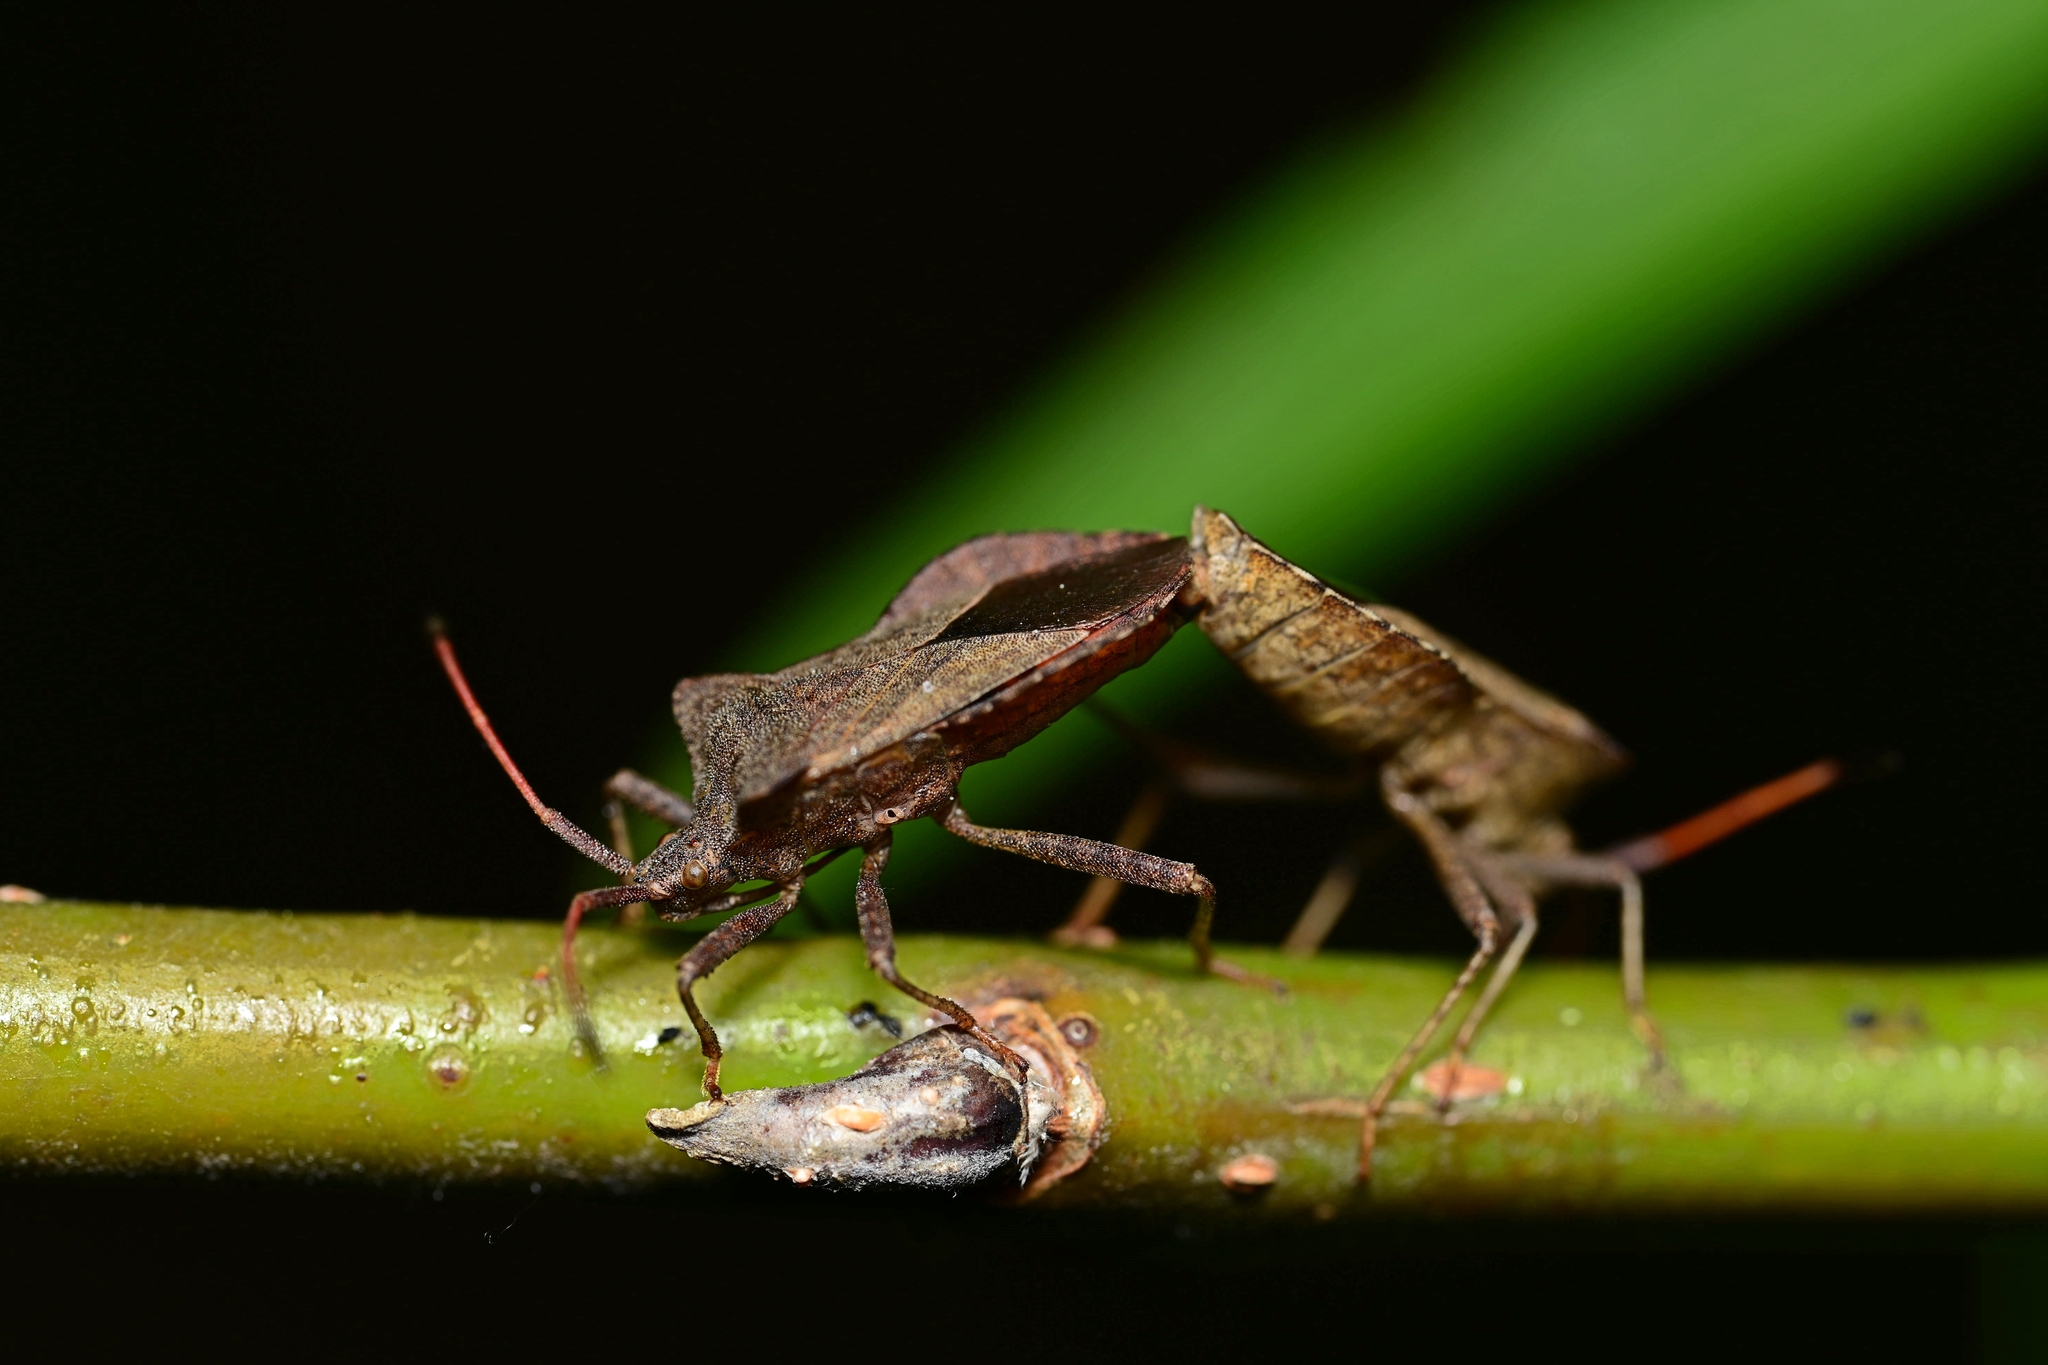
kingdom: Animalia
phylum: Arthropoda
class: Insecta
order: Hemiptera
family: Coreidae
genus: Coreus
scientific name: Coreus marginatus
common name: Dock bug
